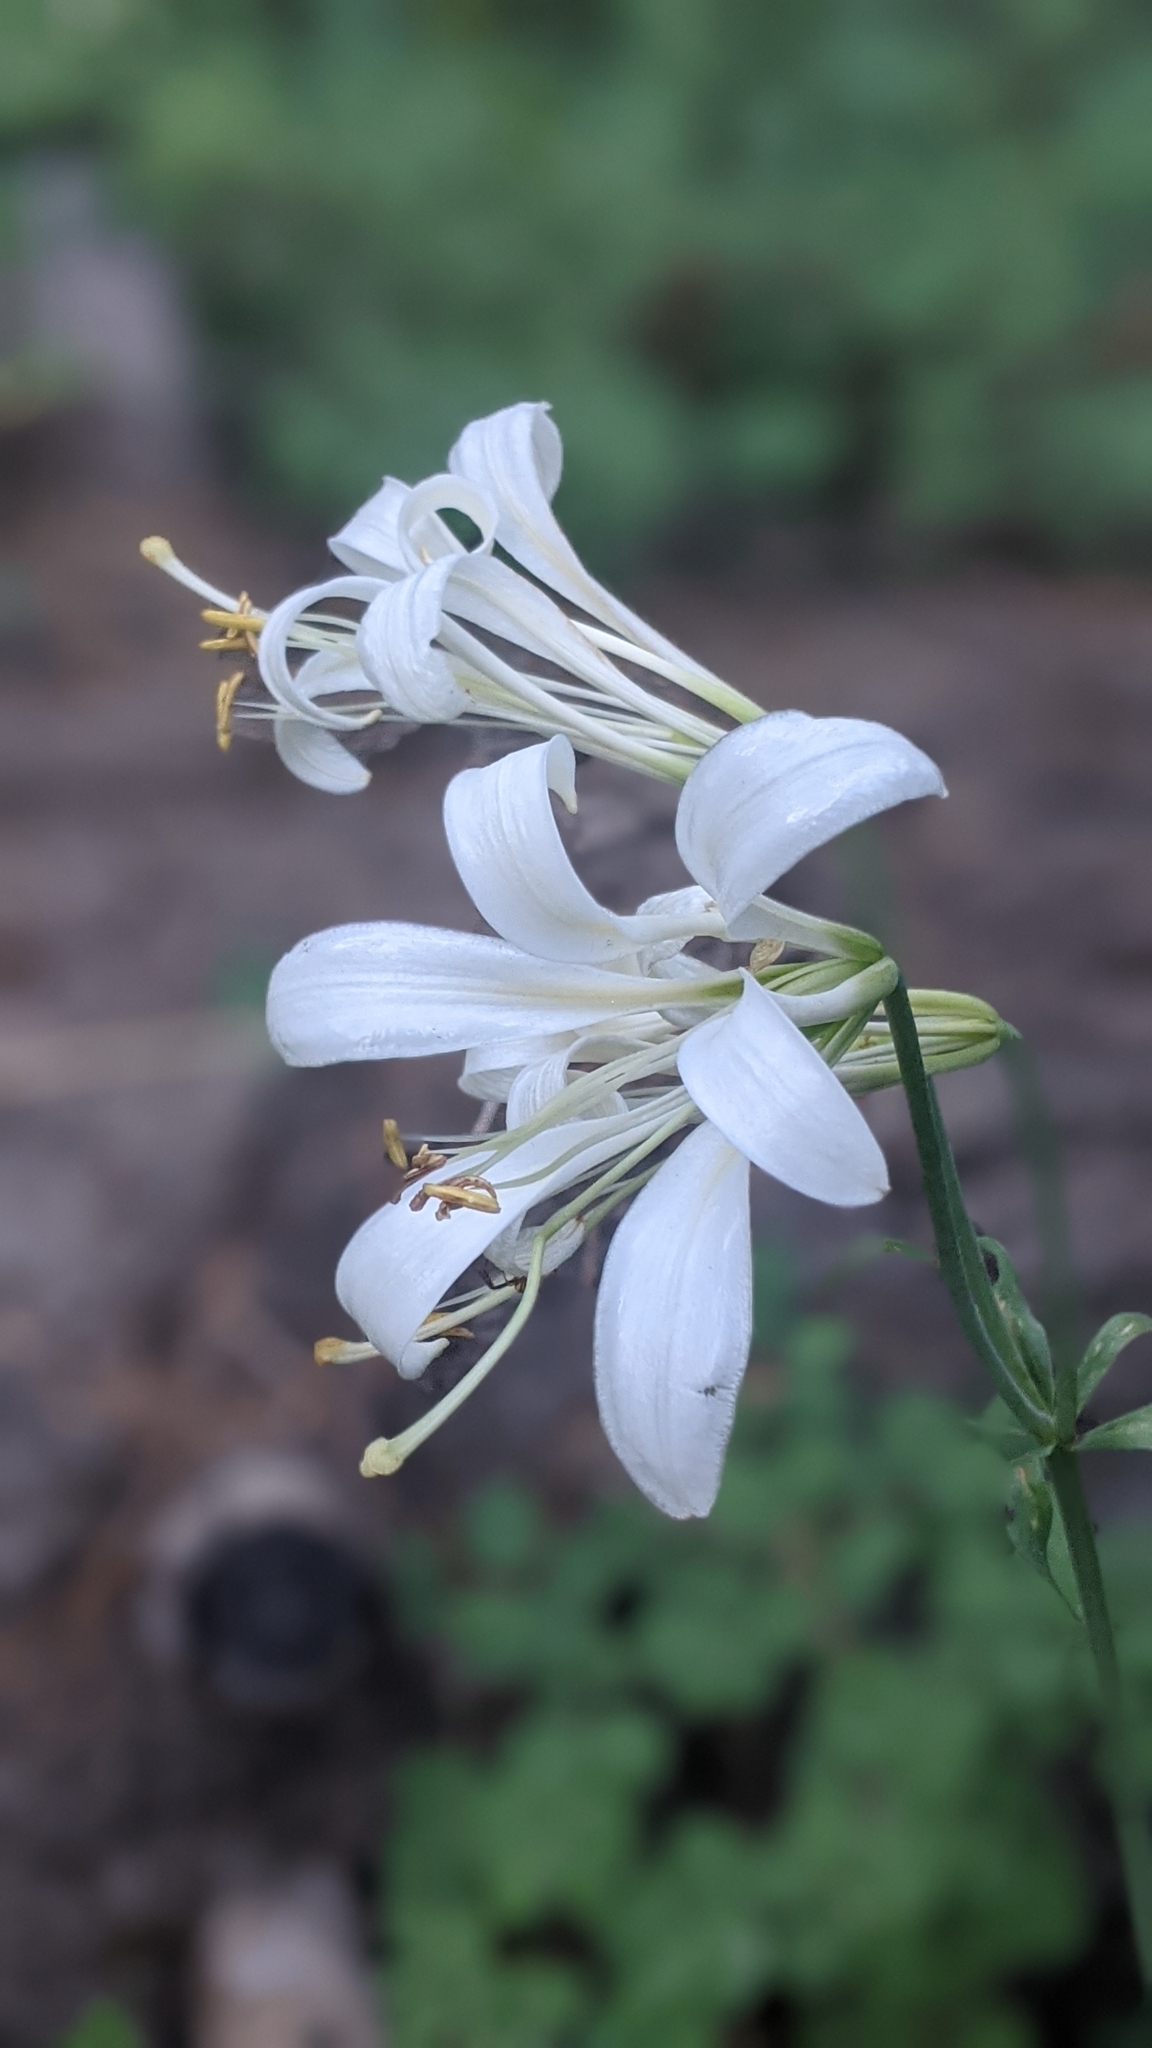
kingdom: Plantae
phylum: Tracheophyta
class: Liliopsida
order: Liliales
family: Liliaceae
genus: Lilium
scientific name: Lilium washingtonianum
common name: Washington lily
